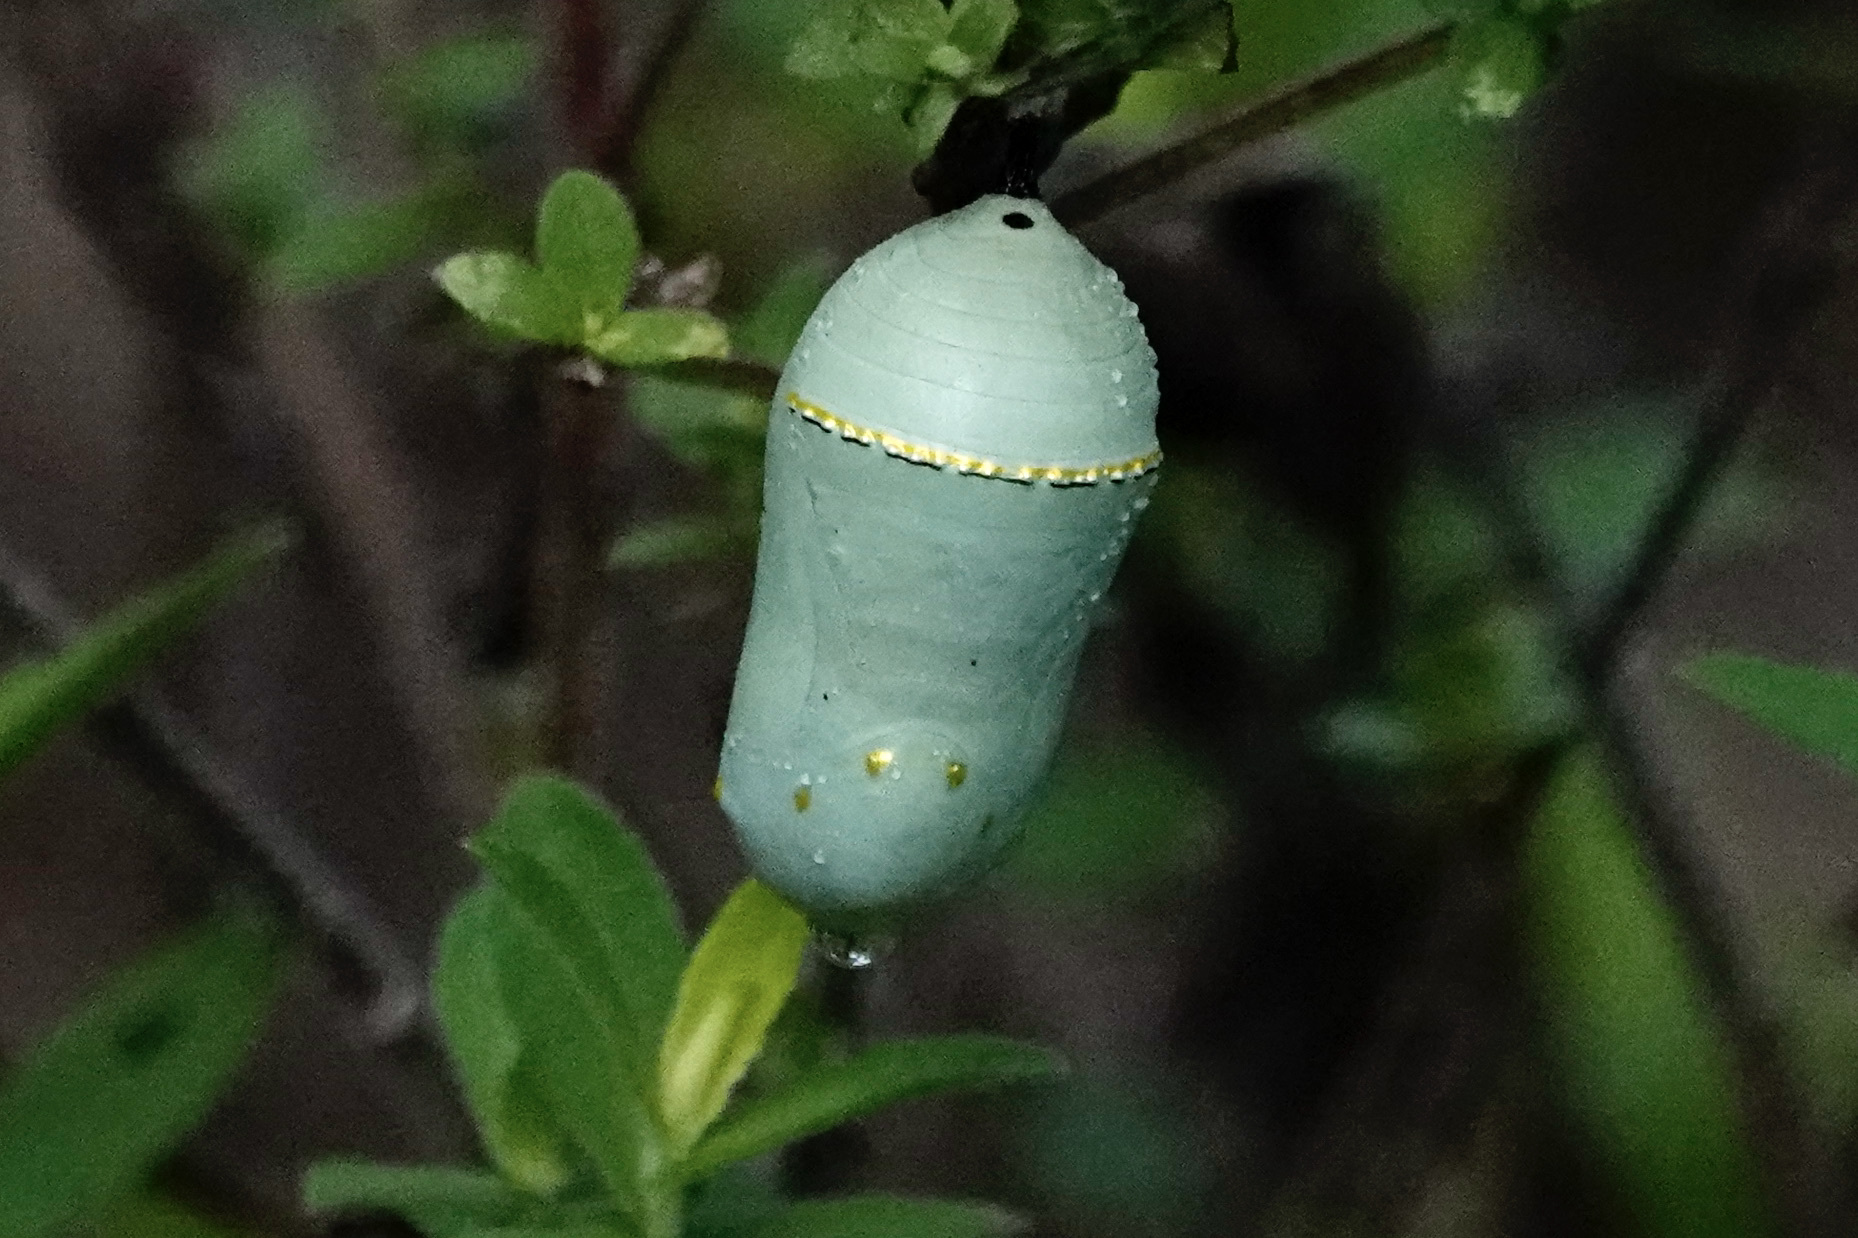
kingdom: Animalia
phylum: Arthropoda
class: Insecta
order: Lepidoptera
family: Nymphalidae
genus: Danaus
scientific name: Danaus plexippus
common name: Monarch
